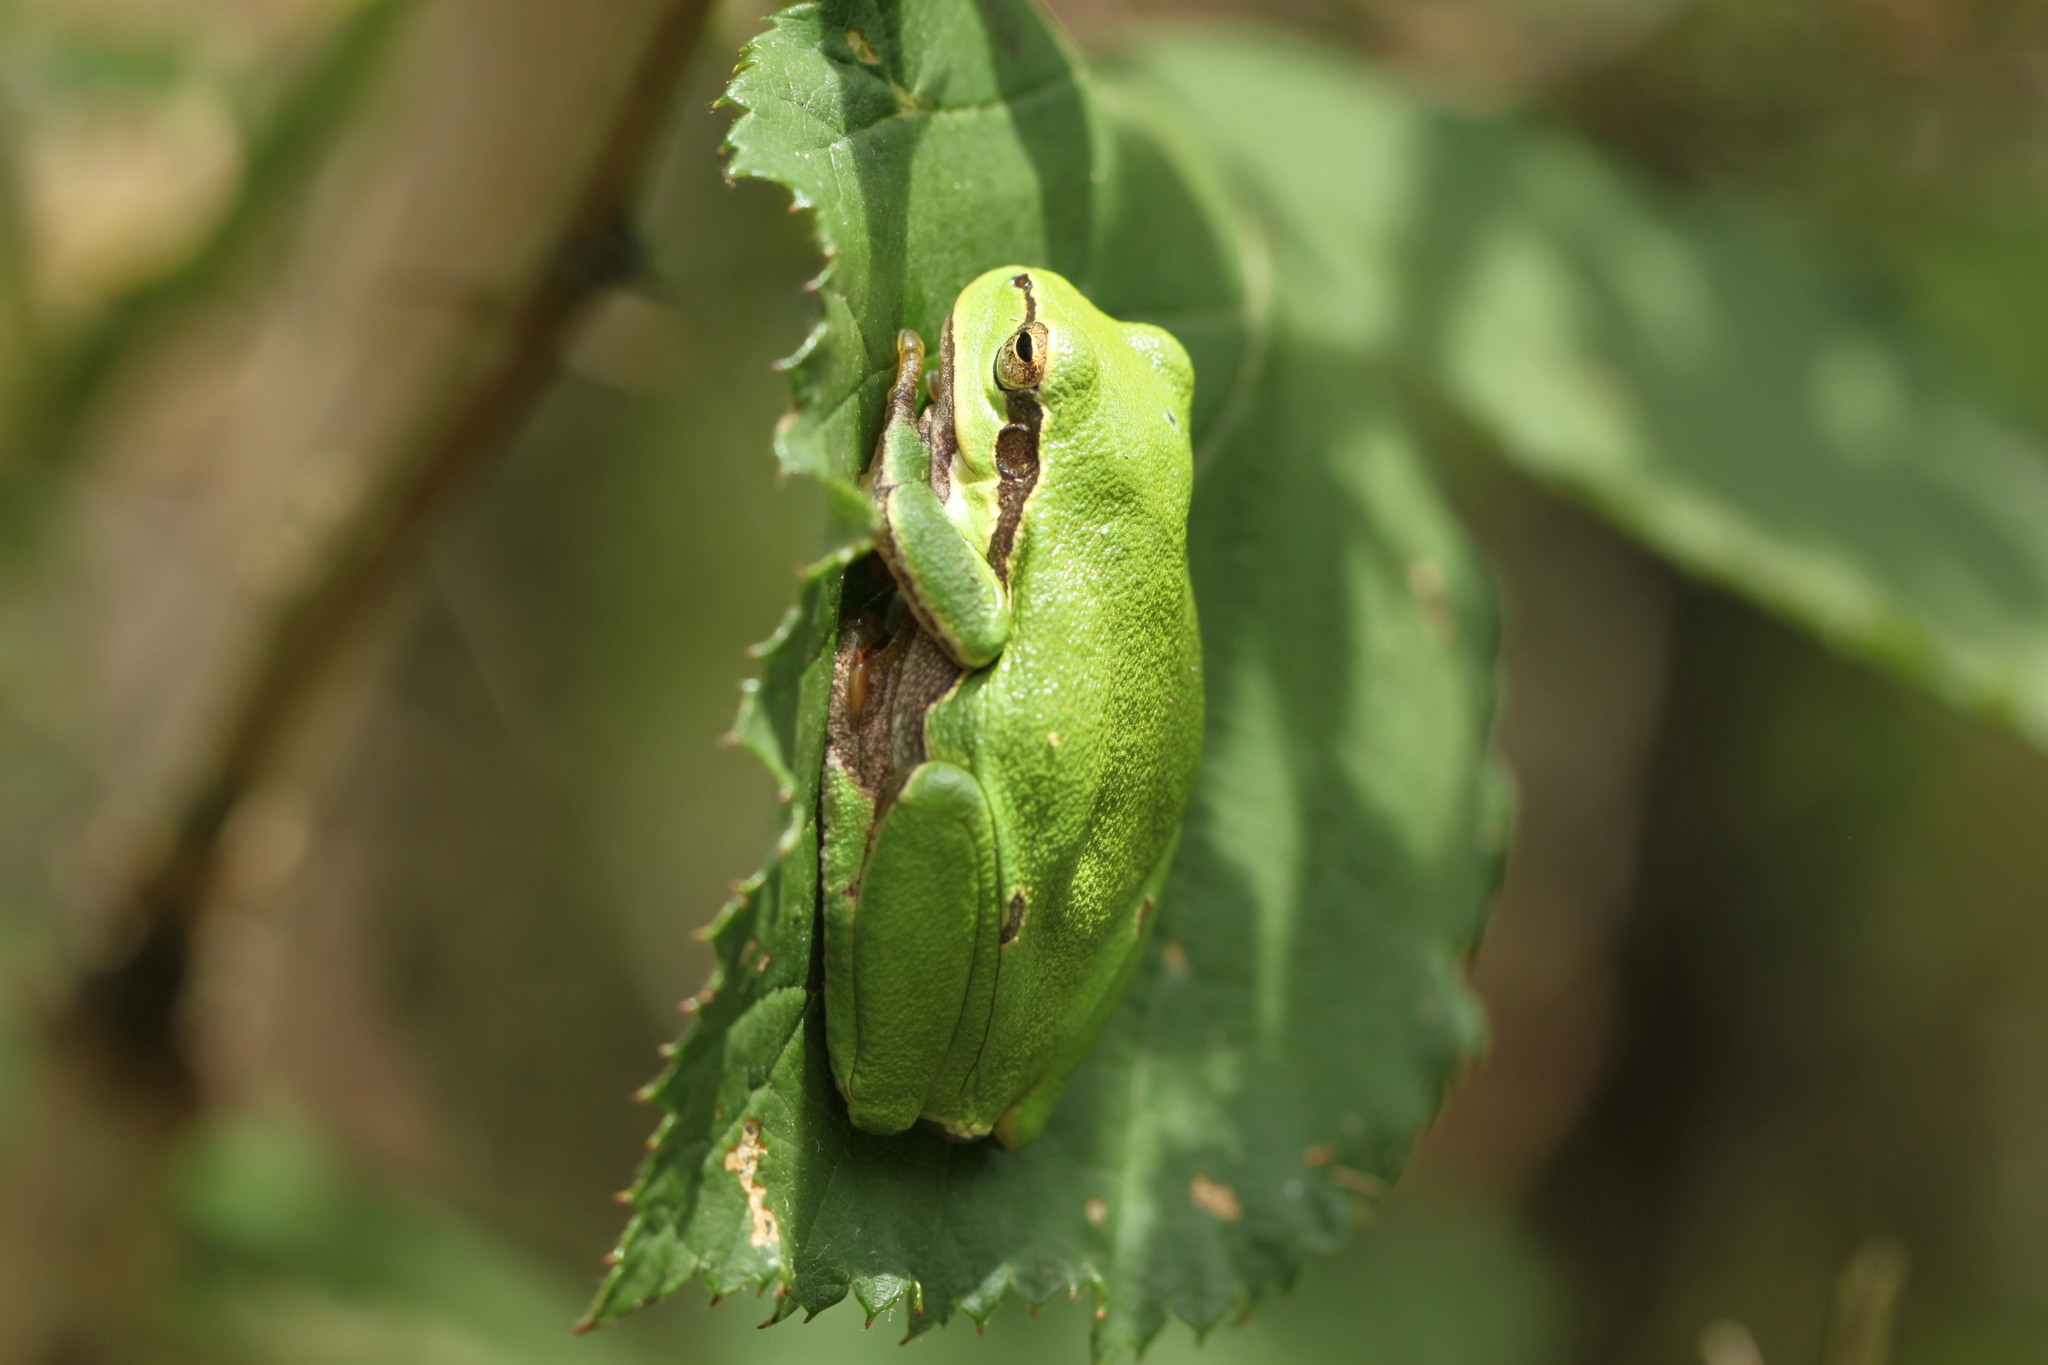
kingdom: Animalia
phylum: Chordata
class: Amphibia
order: Anura
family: Hylidae
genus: Hyla
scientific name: Hyla arborea
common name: Common tree frog
